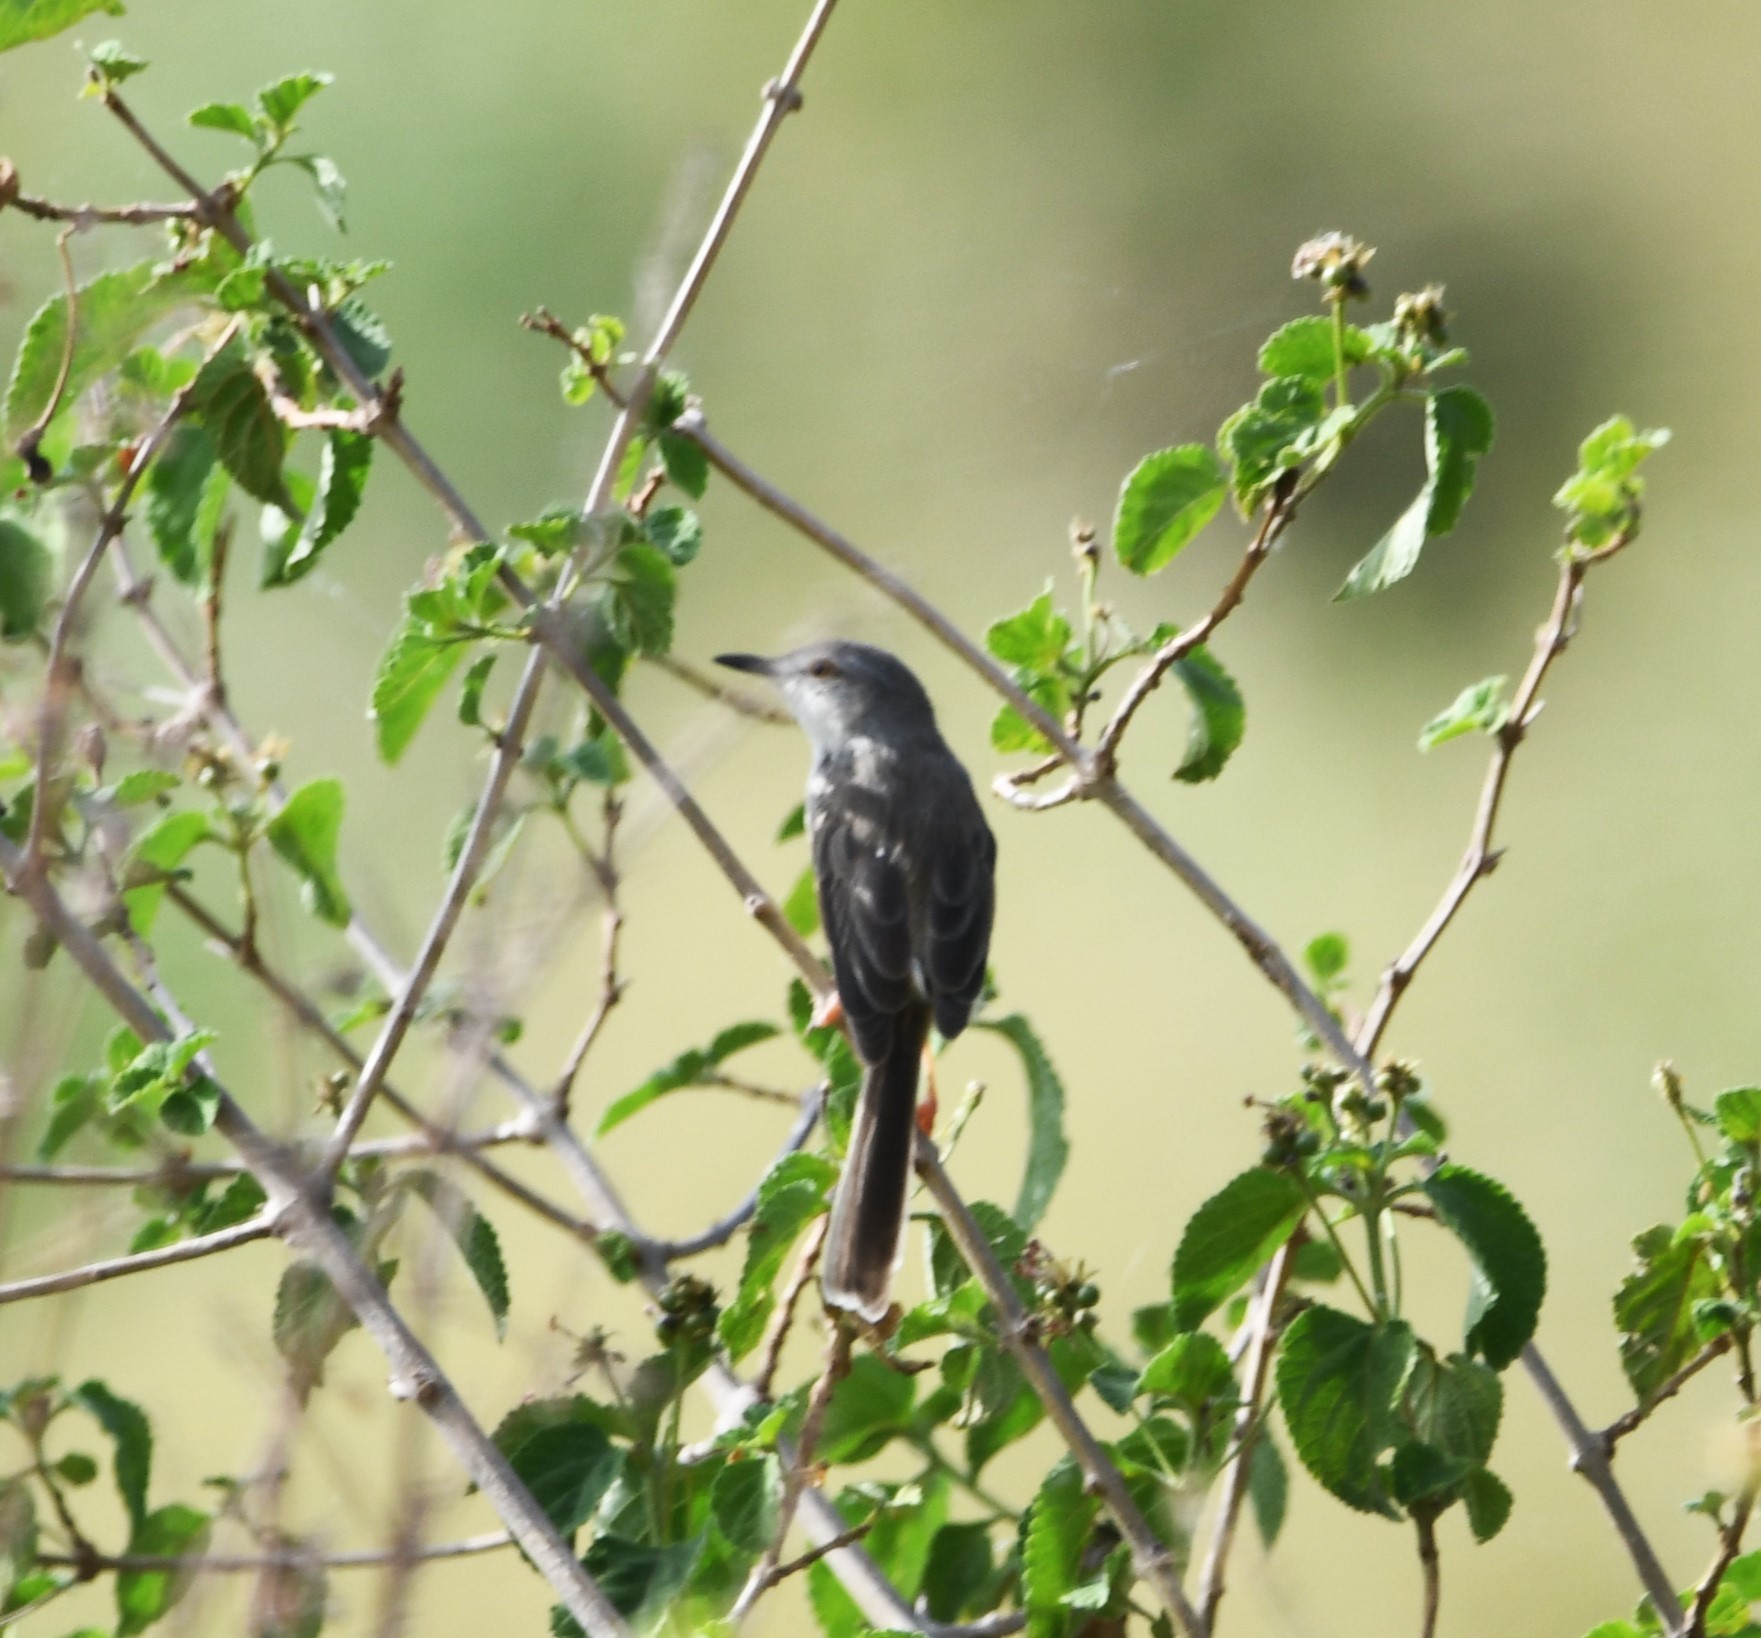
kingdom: Animalia
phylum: Chordata
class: Aves
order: Passeriformes
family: Cisticolidae
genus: Prinia
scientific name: Prinia hodgsonii
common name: Grey-breasted prinia
